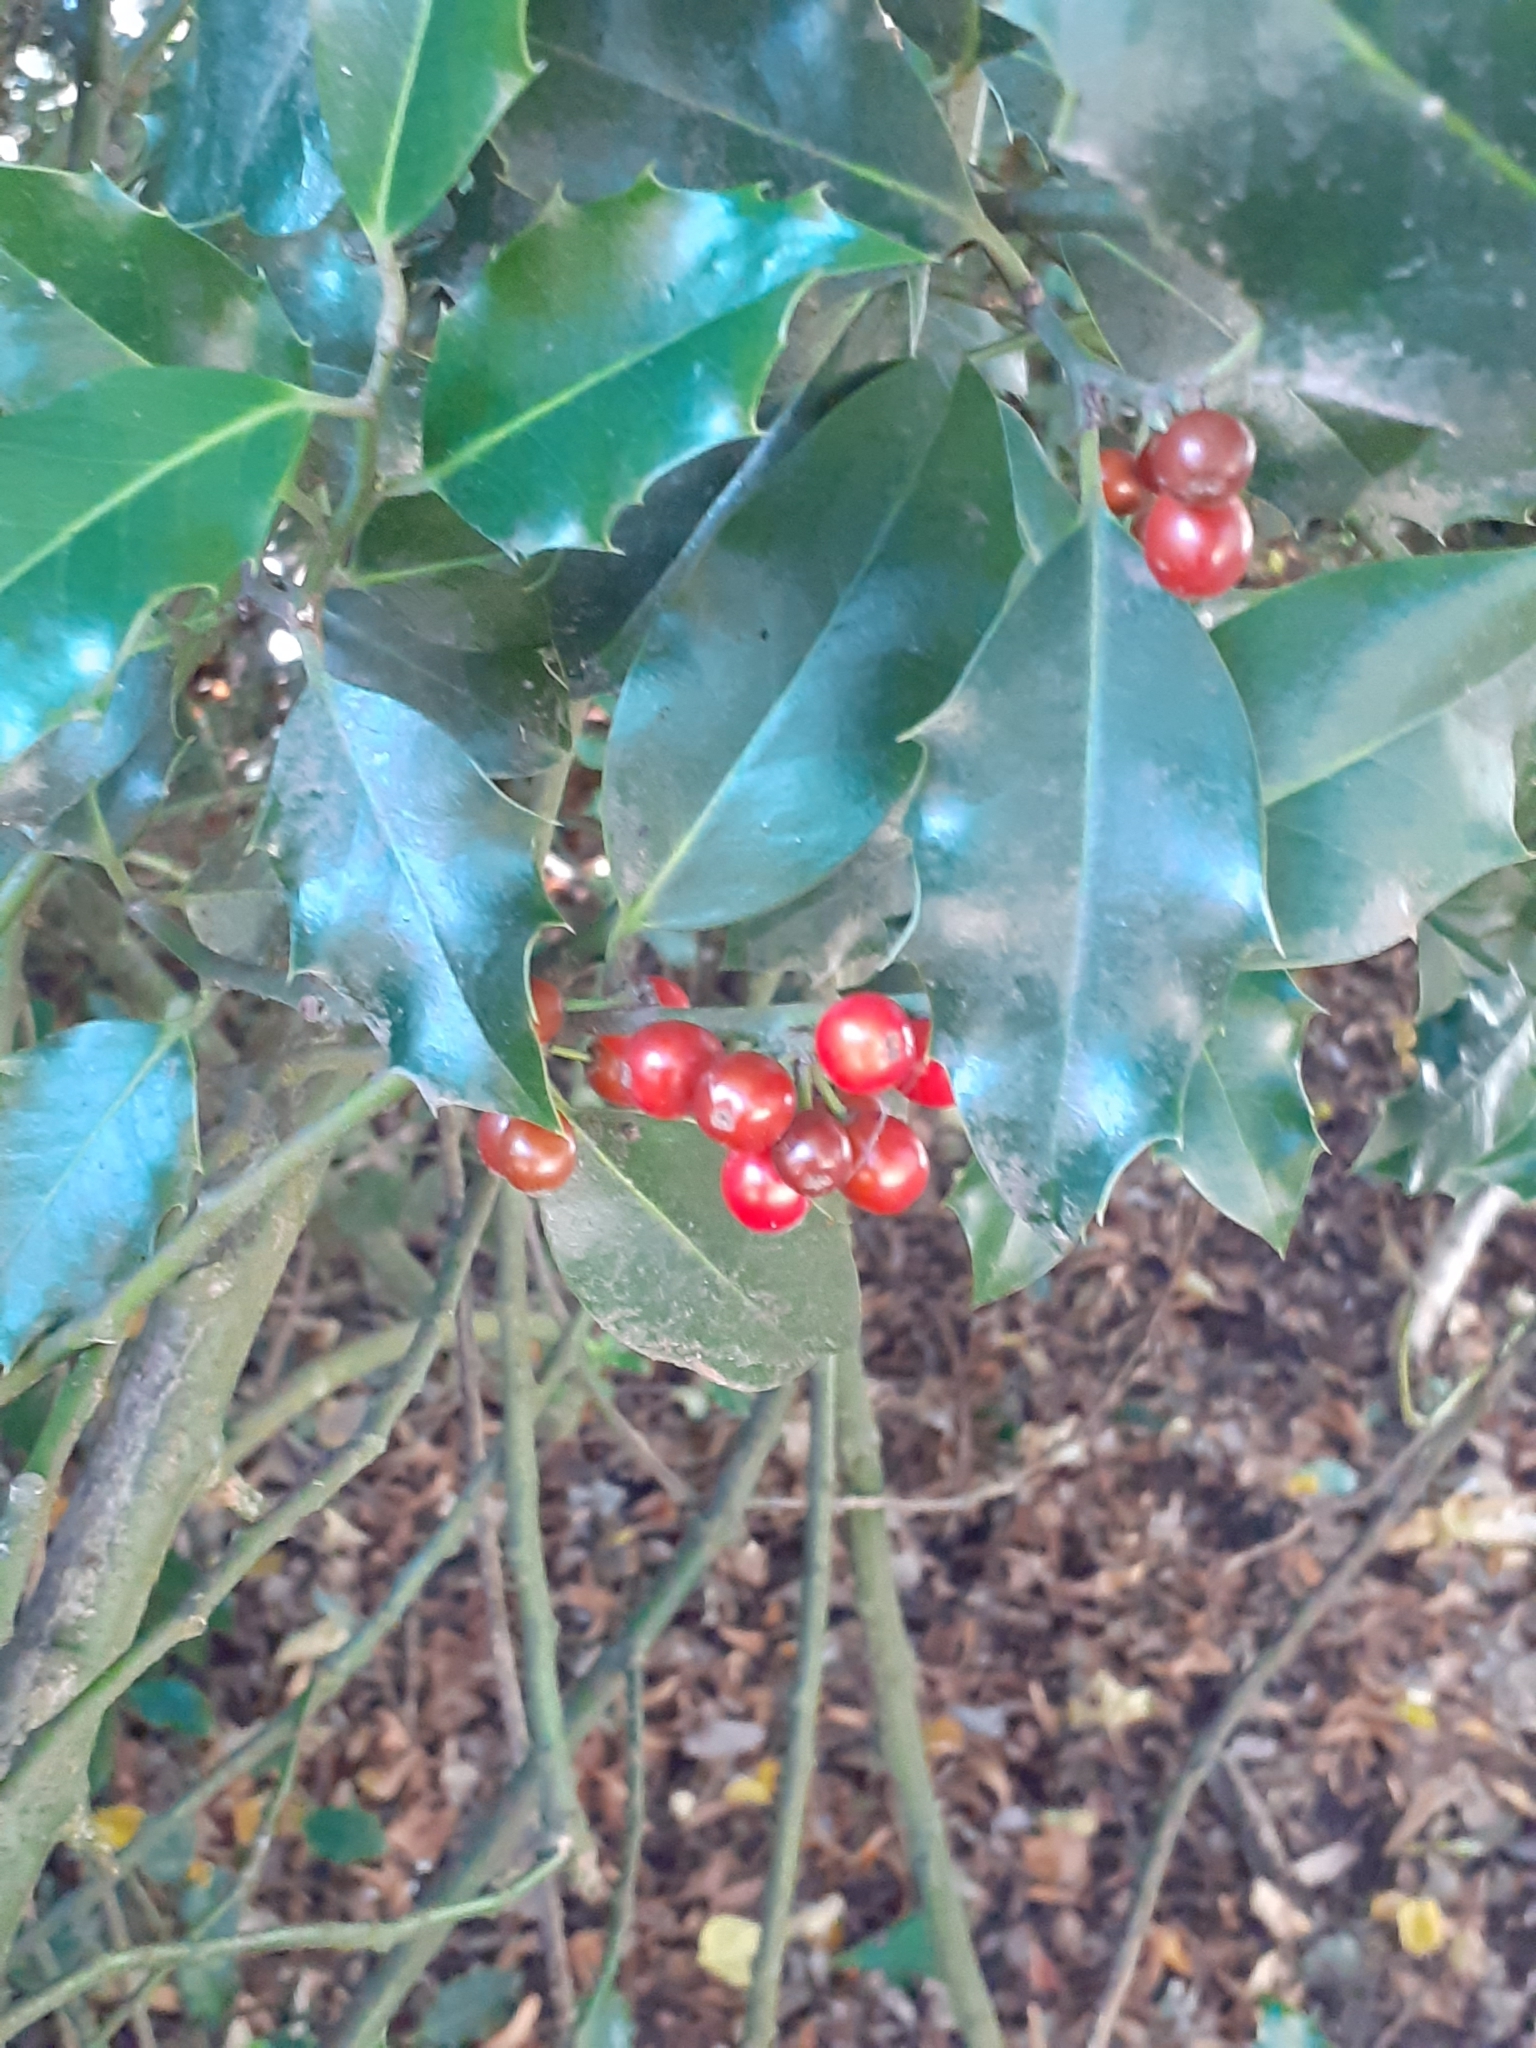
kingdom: Plantae
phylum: Tracheophyta
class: Magnoliopsida
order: Aquifoliales
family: Aquifoliaceae
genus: Ilex
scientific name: Ilex aquifolium
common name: English holly
